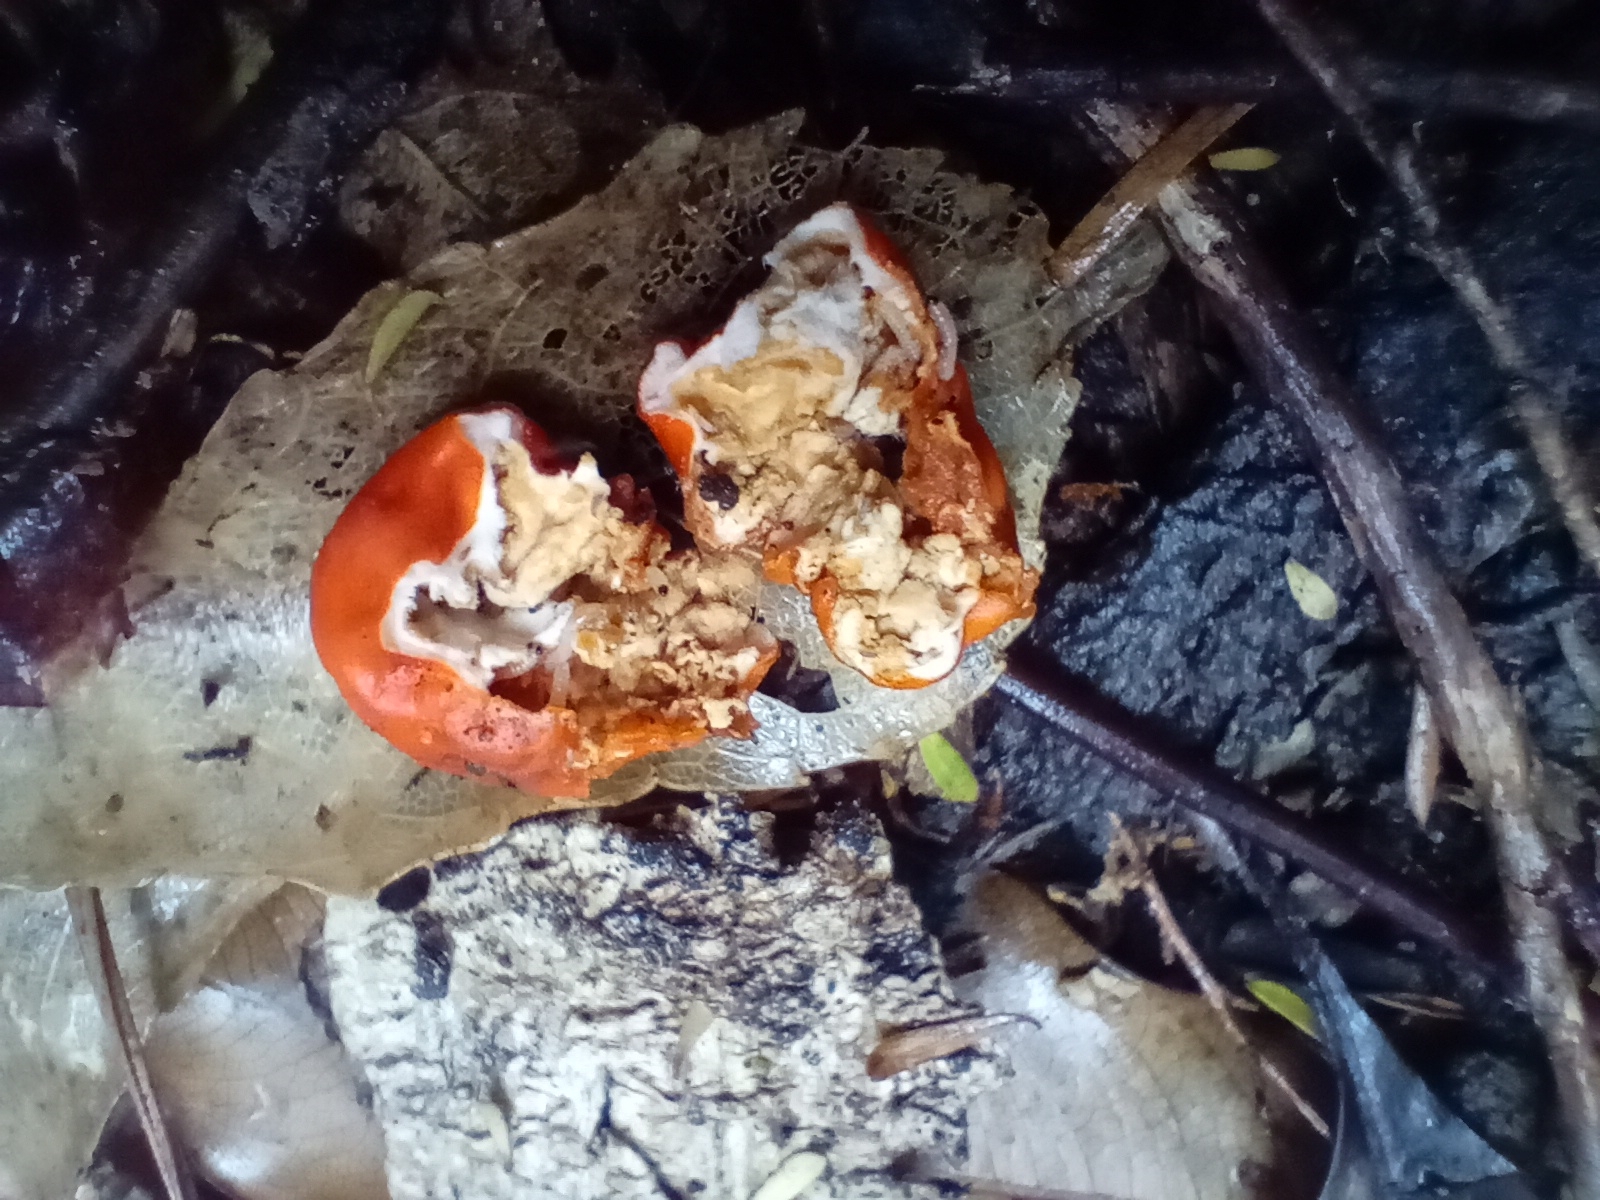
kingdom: Fungi
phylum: Ascomycota
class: Pezizomycetes
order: Pezizales
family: Pyronemataceae
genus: Paurocotylis
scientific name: Paurocotylis pila
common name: Scarlet berry truffle
